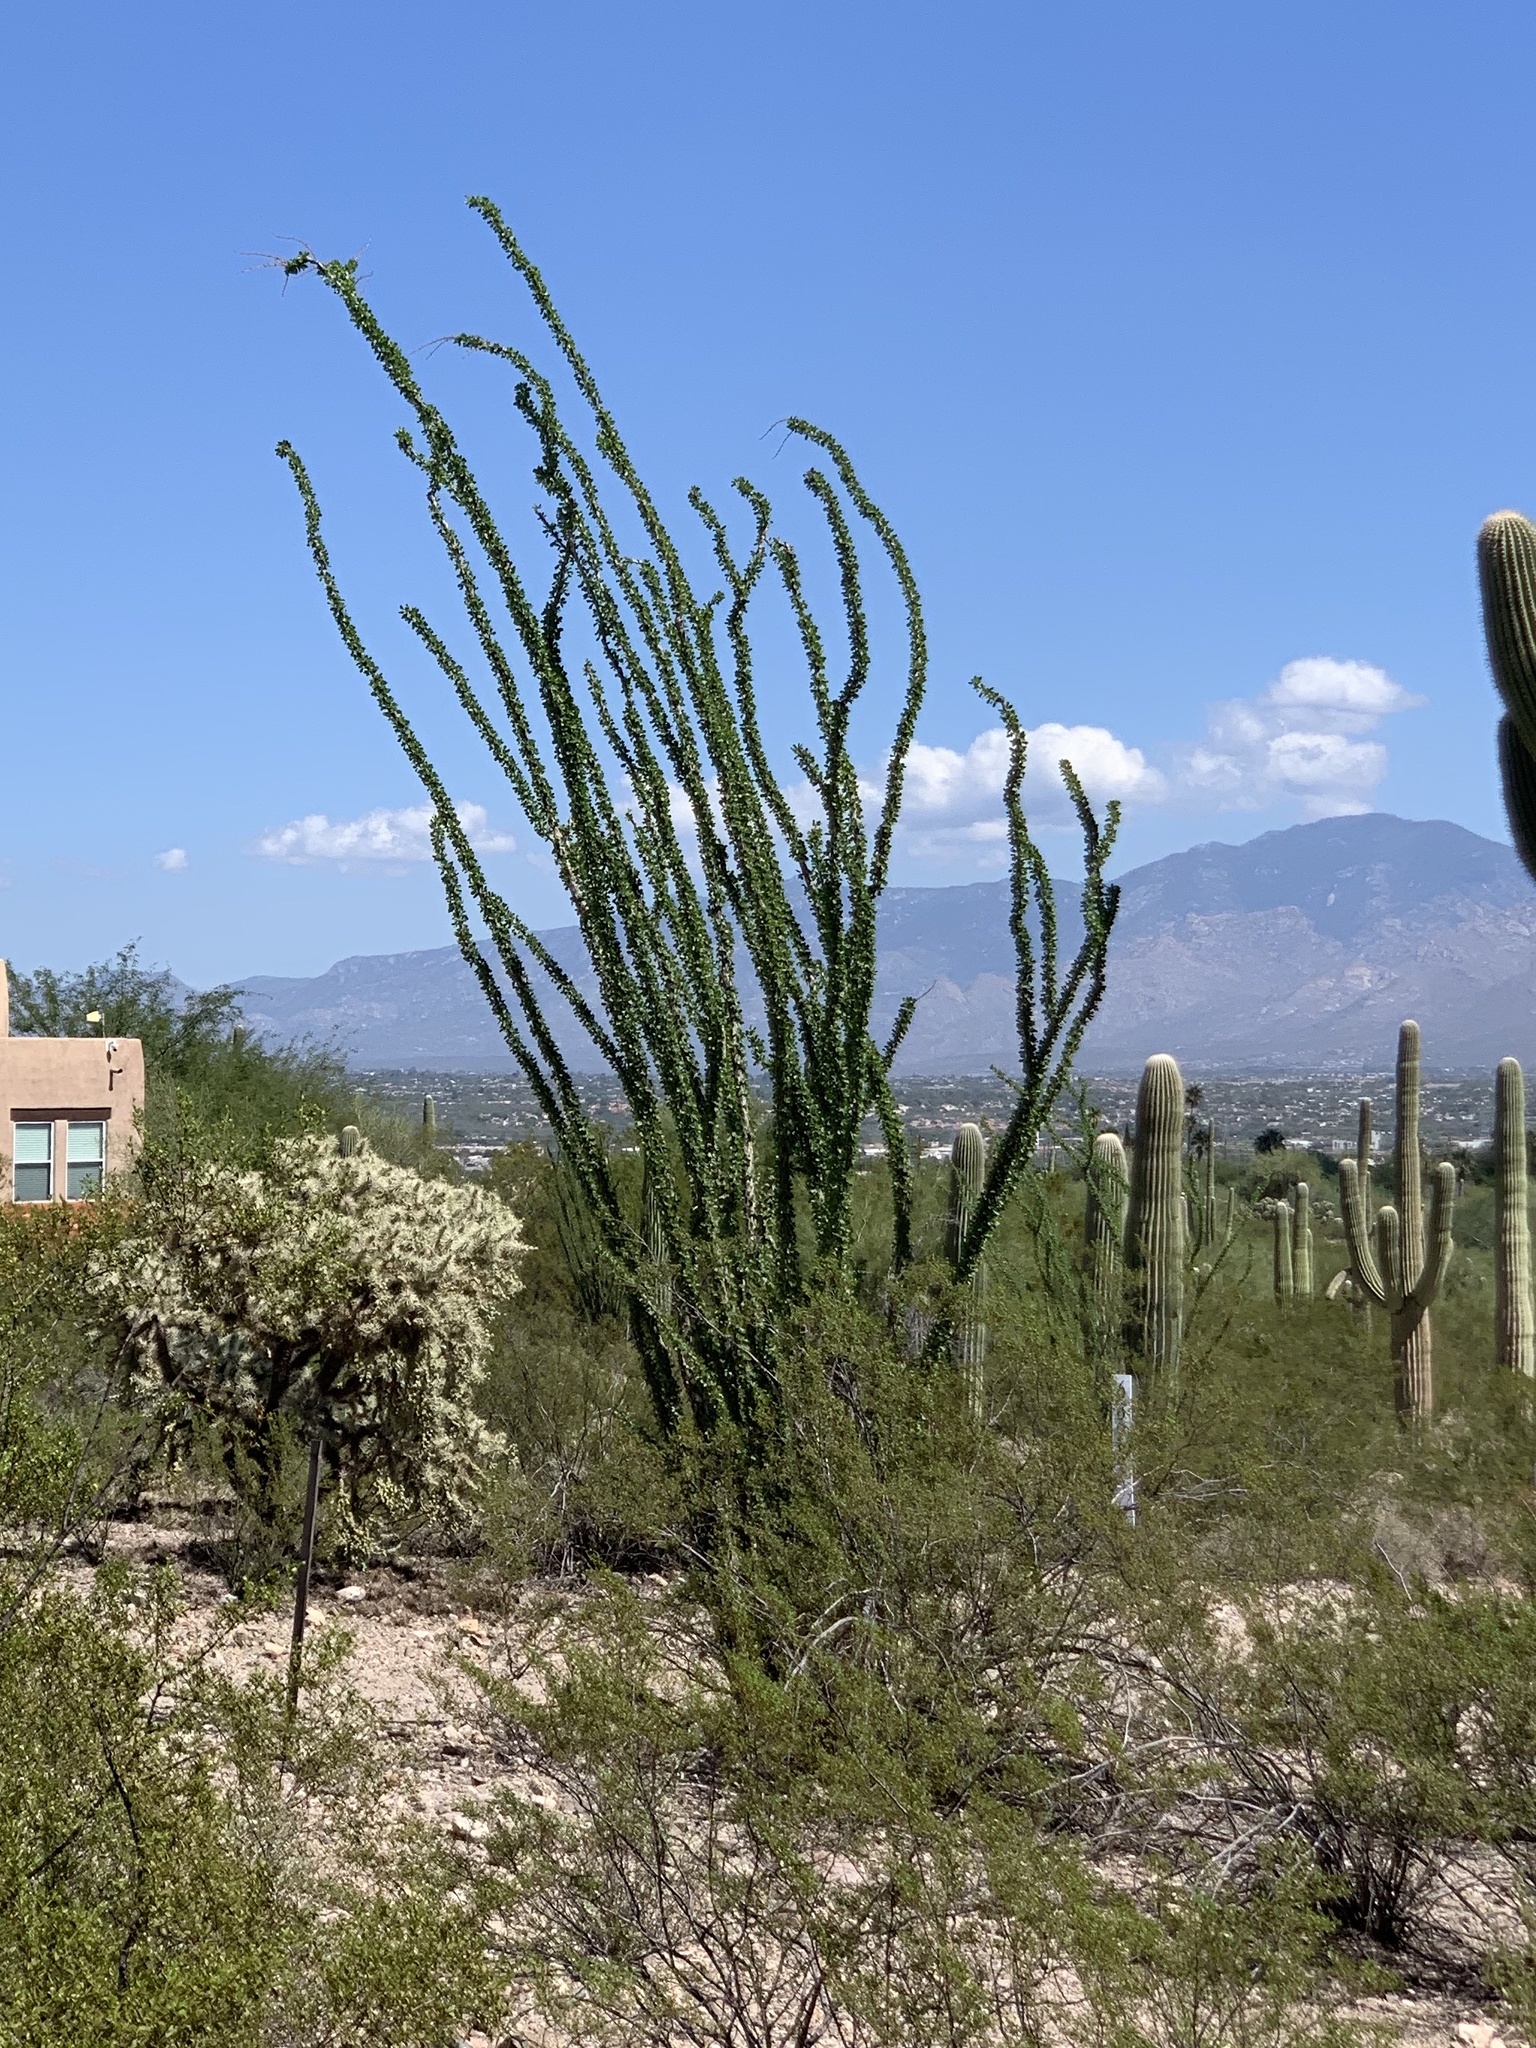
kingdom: Plantae
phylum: Tracheophyta
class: Magnoliopsida
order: Ericales
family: Fouquieriaceae
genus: Fouquieria
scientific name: Fouquieria splendens
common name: Vine-cactus
